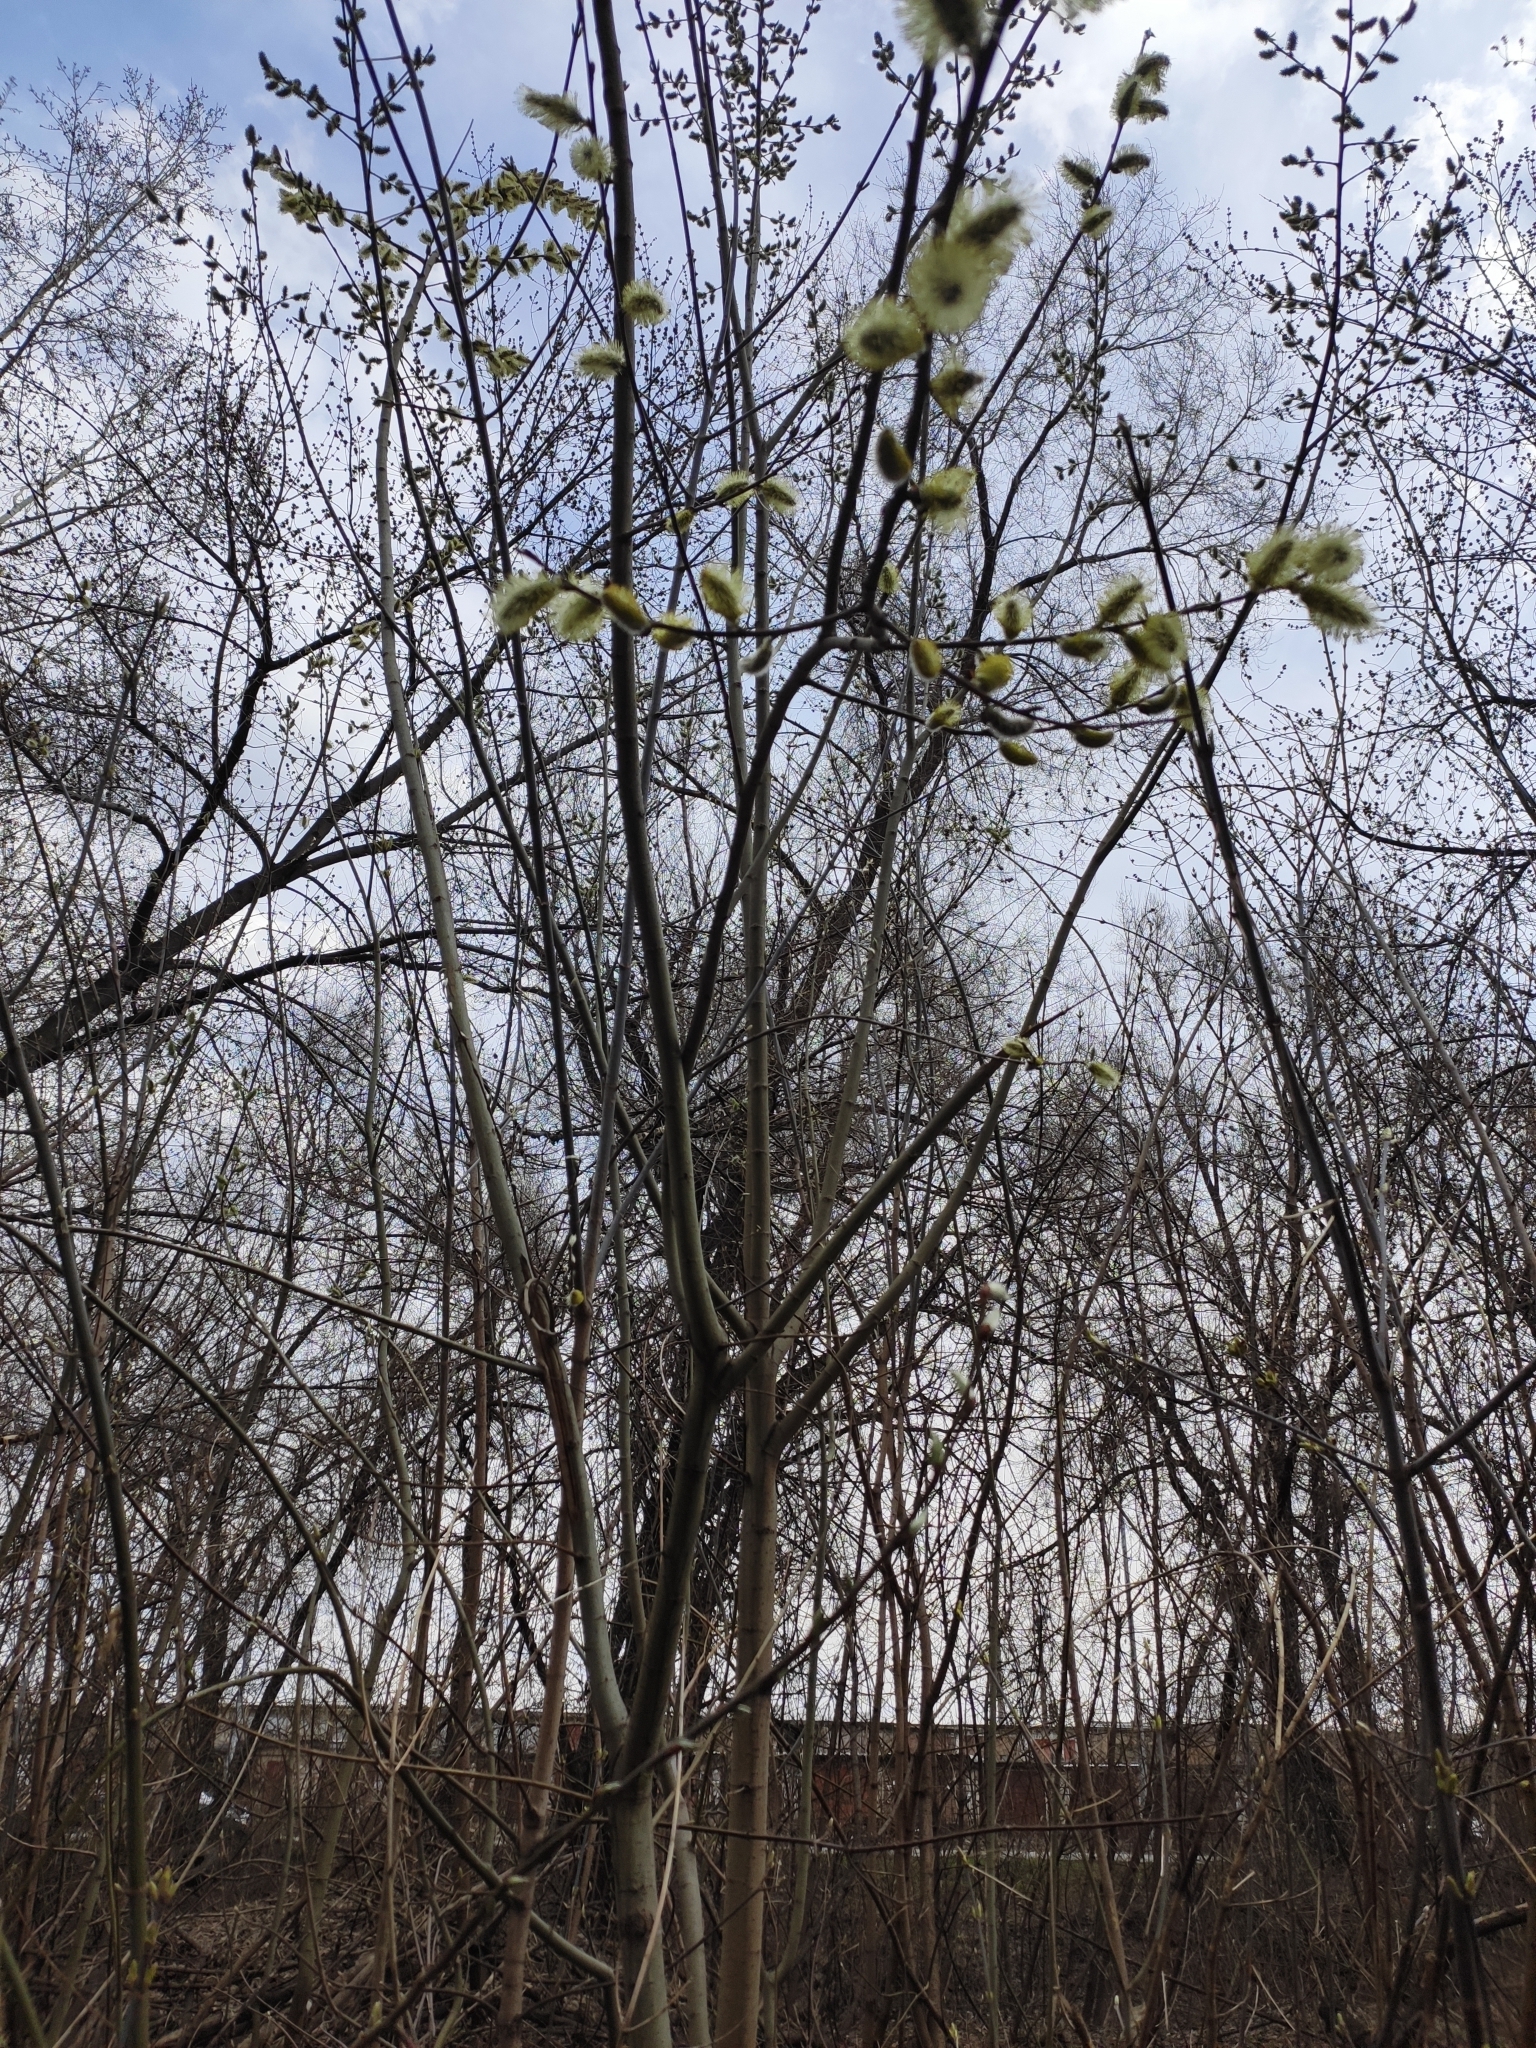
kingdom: Plantae
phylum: Tracheophyta
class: Magnoliopsida
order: Malpighiales
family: Salicaceae
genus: Salix
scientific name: Salix caprea
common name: Goat willow
